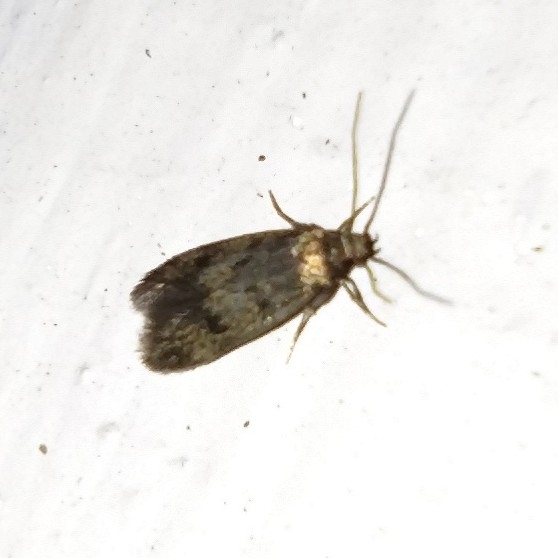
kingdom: Animalia
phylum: Arthropoda
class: Insecta
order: Lepidoptera
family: Oecophoridae
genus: Borkhausenia
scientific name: Borkhausenia fuscescens
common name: Small dingy tubic
